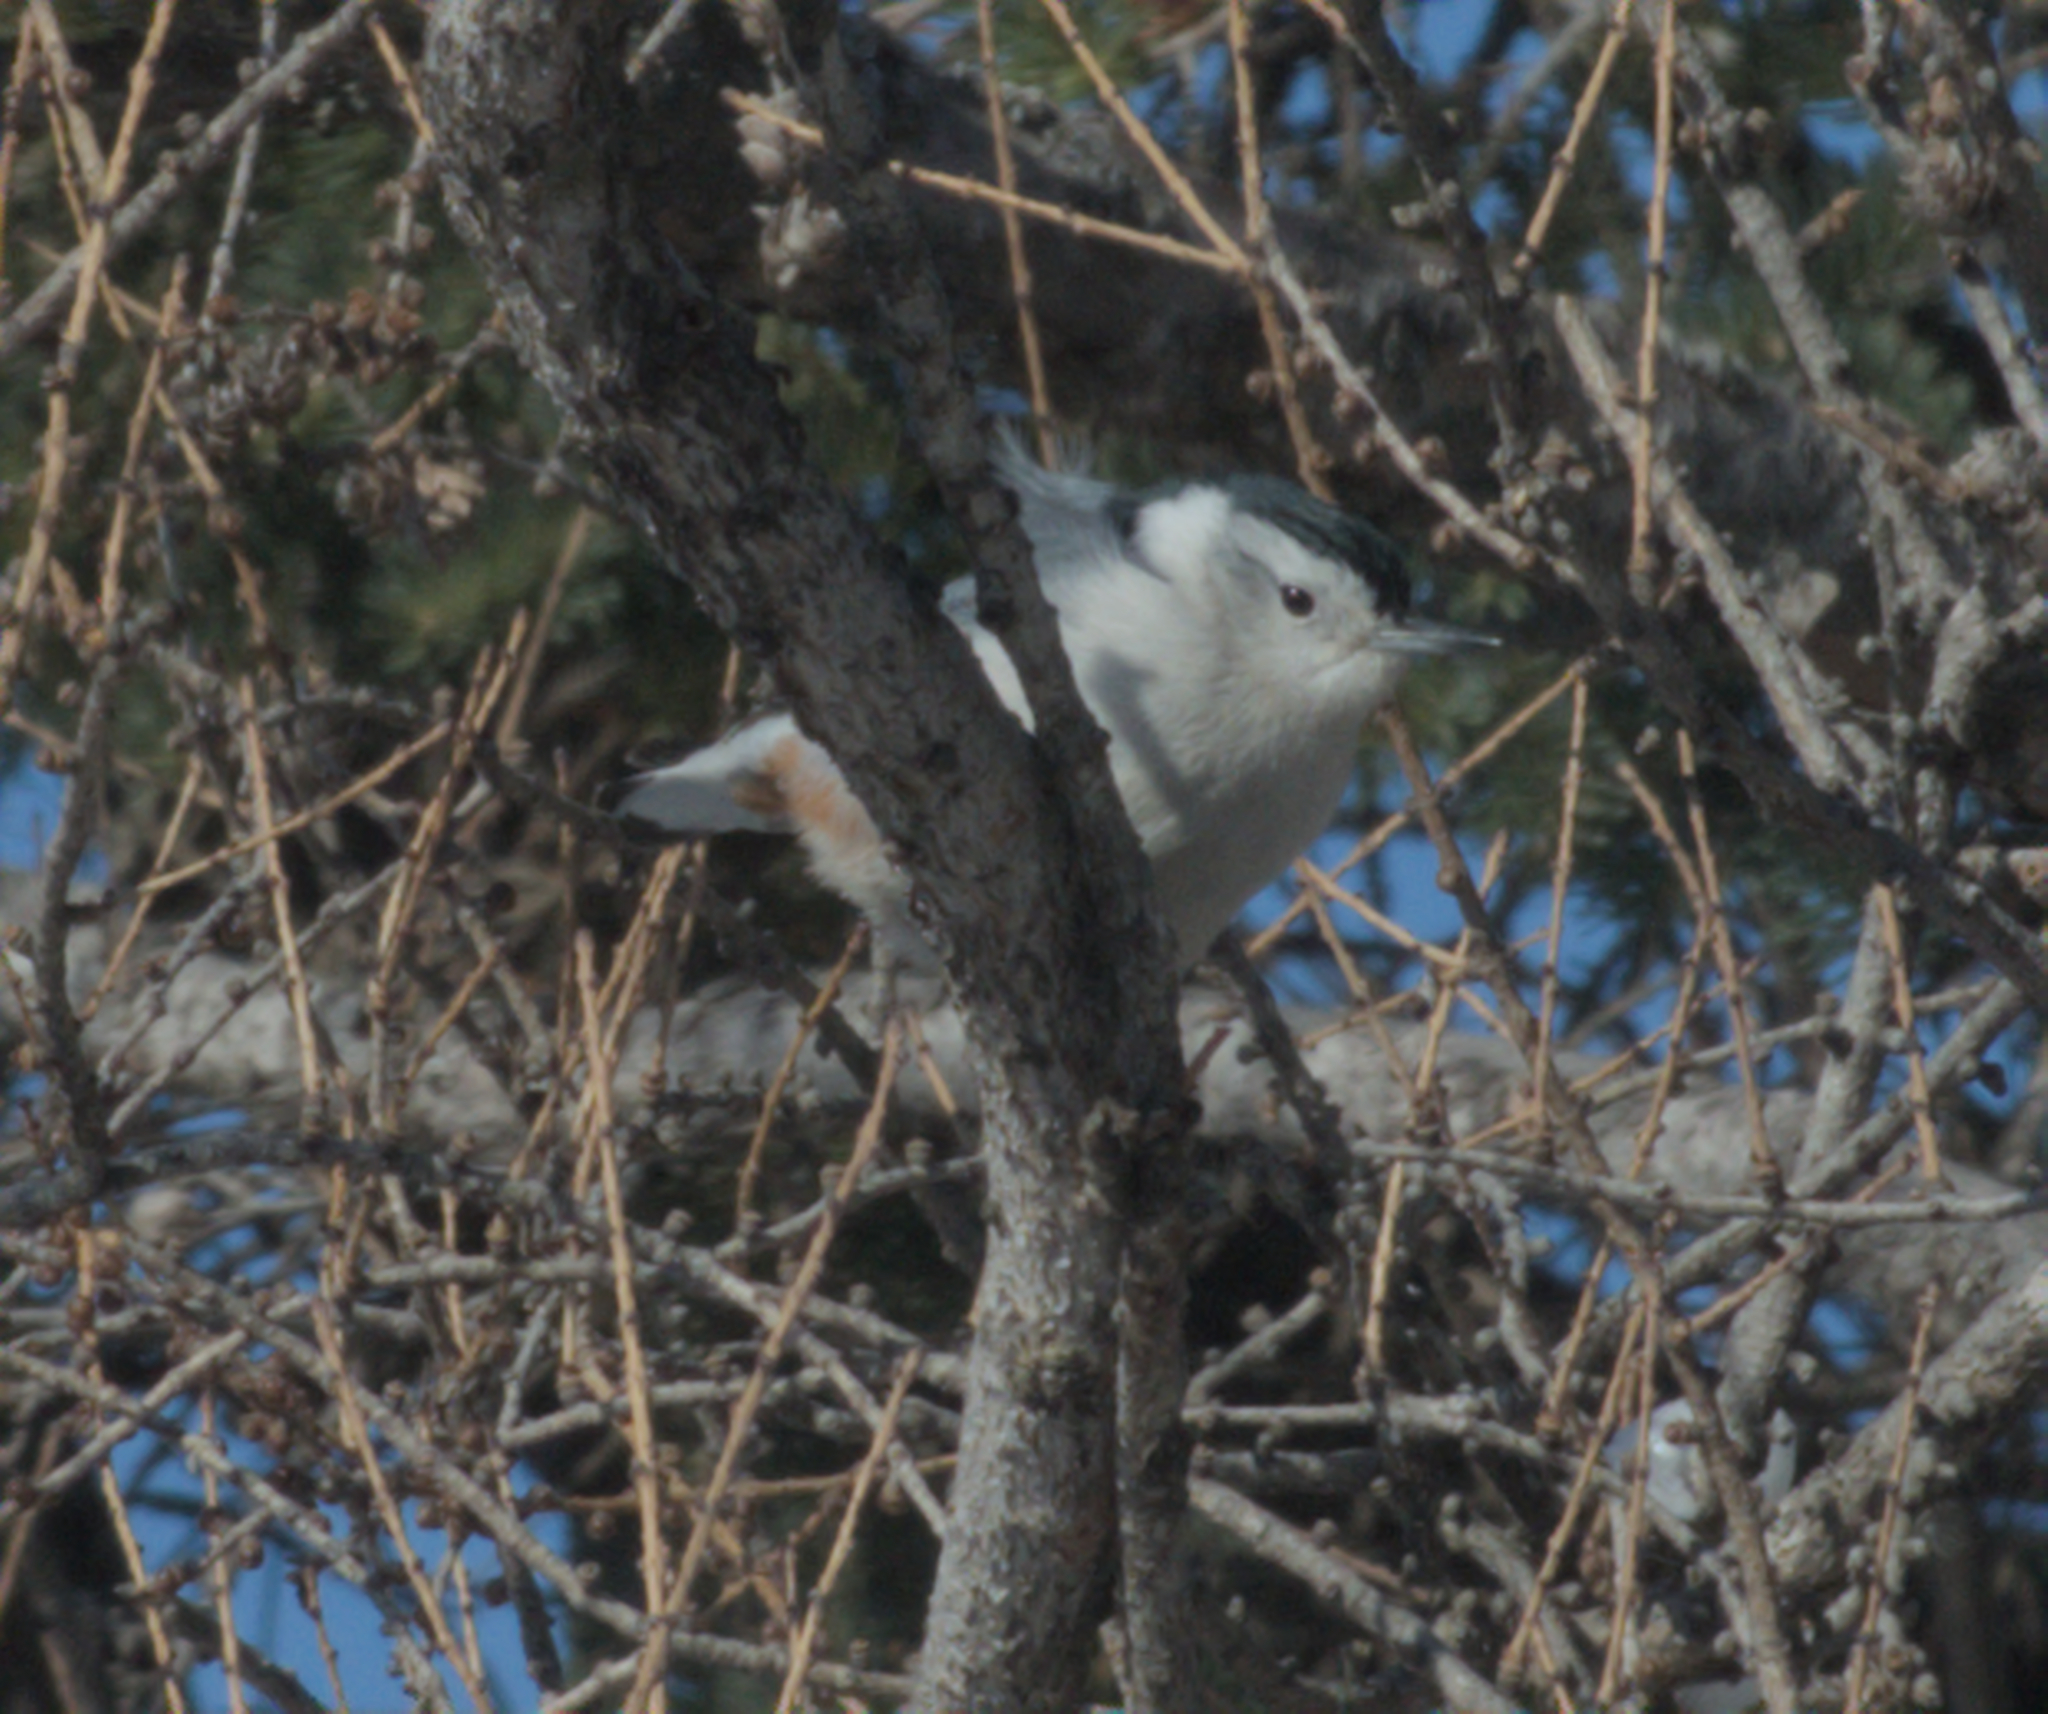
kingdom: Animalia
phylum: Chordata
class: Aves
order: Passeriformes
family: Sittidae
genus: Sitta
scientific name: Sitta carolinensis
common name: White-breasted nuthatch
